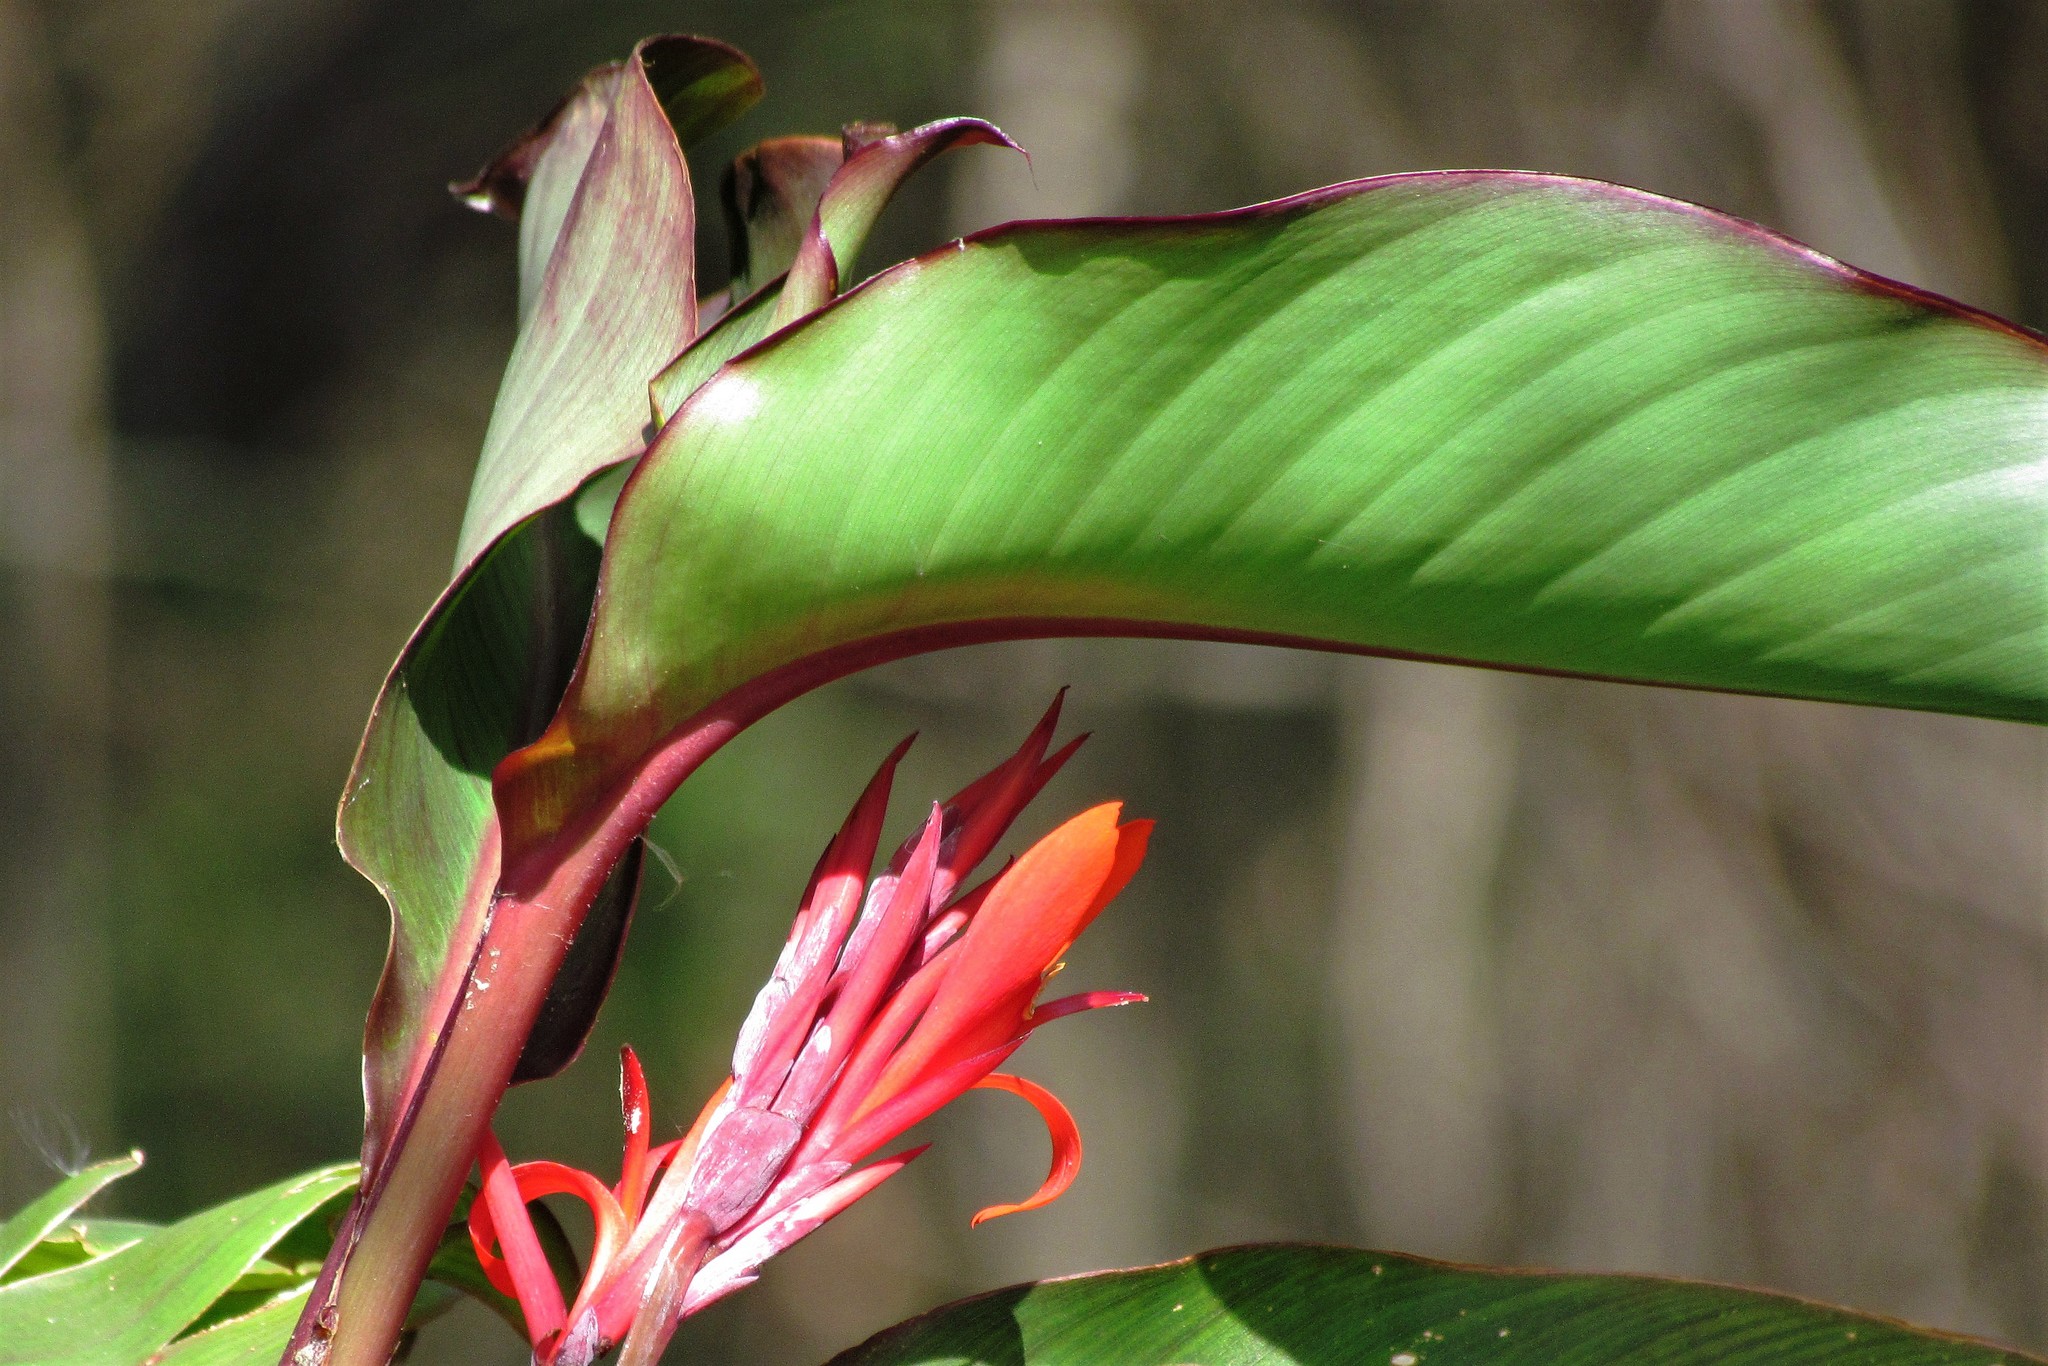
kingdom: Plantae
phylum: Tracheophyta
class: Liliopsida
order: Zingiberales
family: Cannaceae
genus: Canna
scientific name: Canna indica
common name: Indian shot
